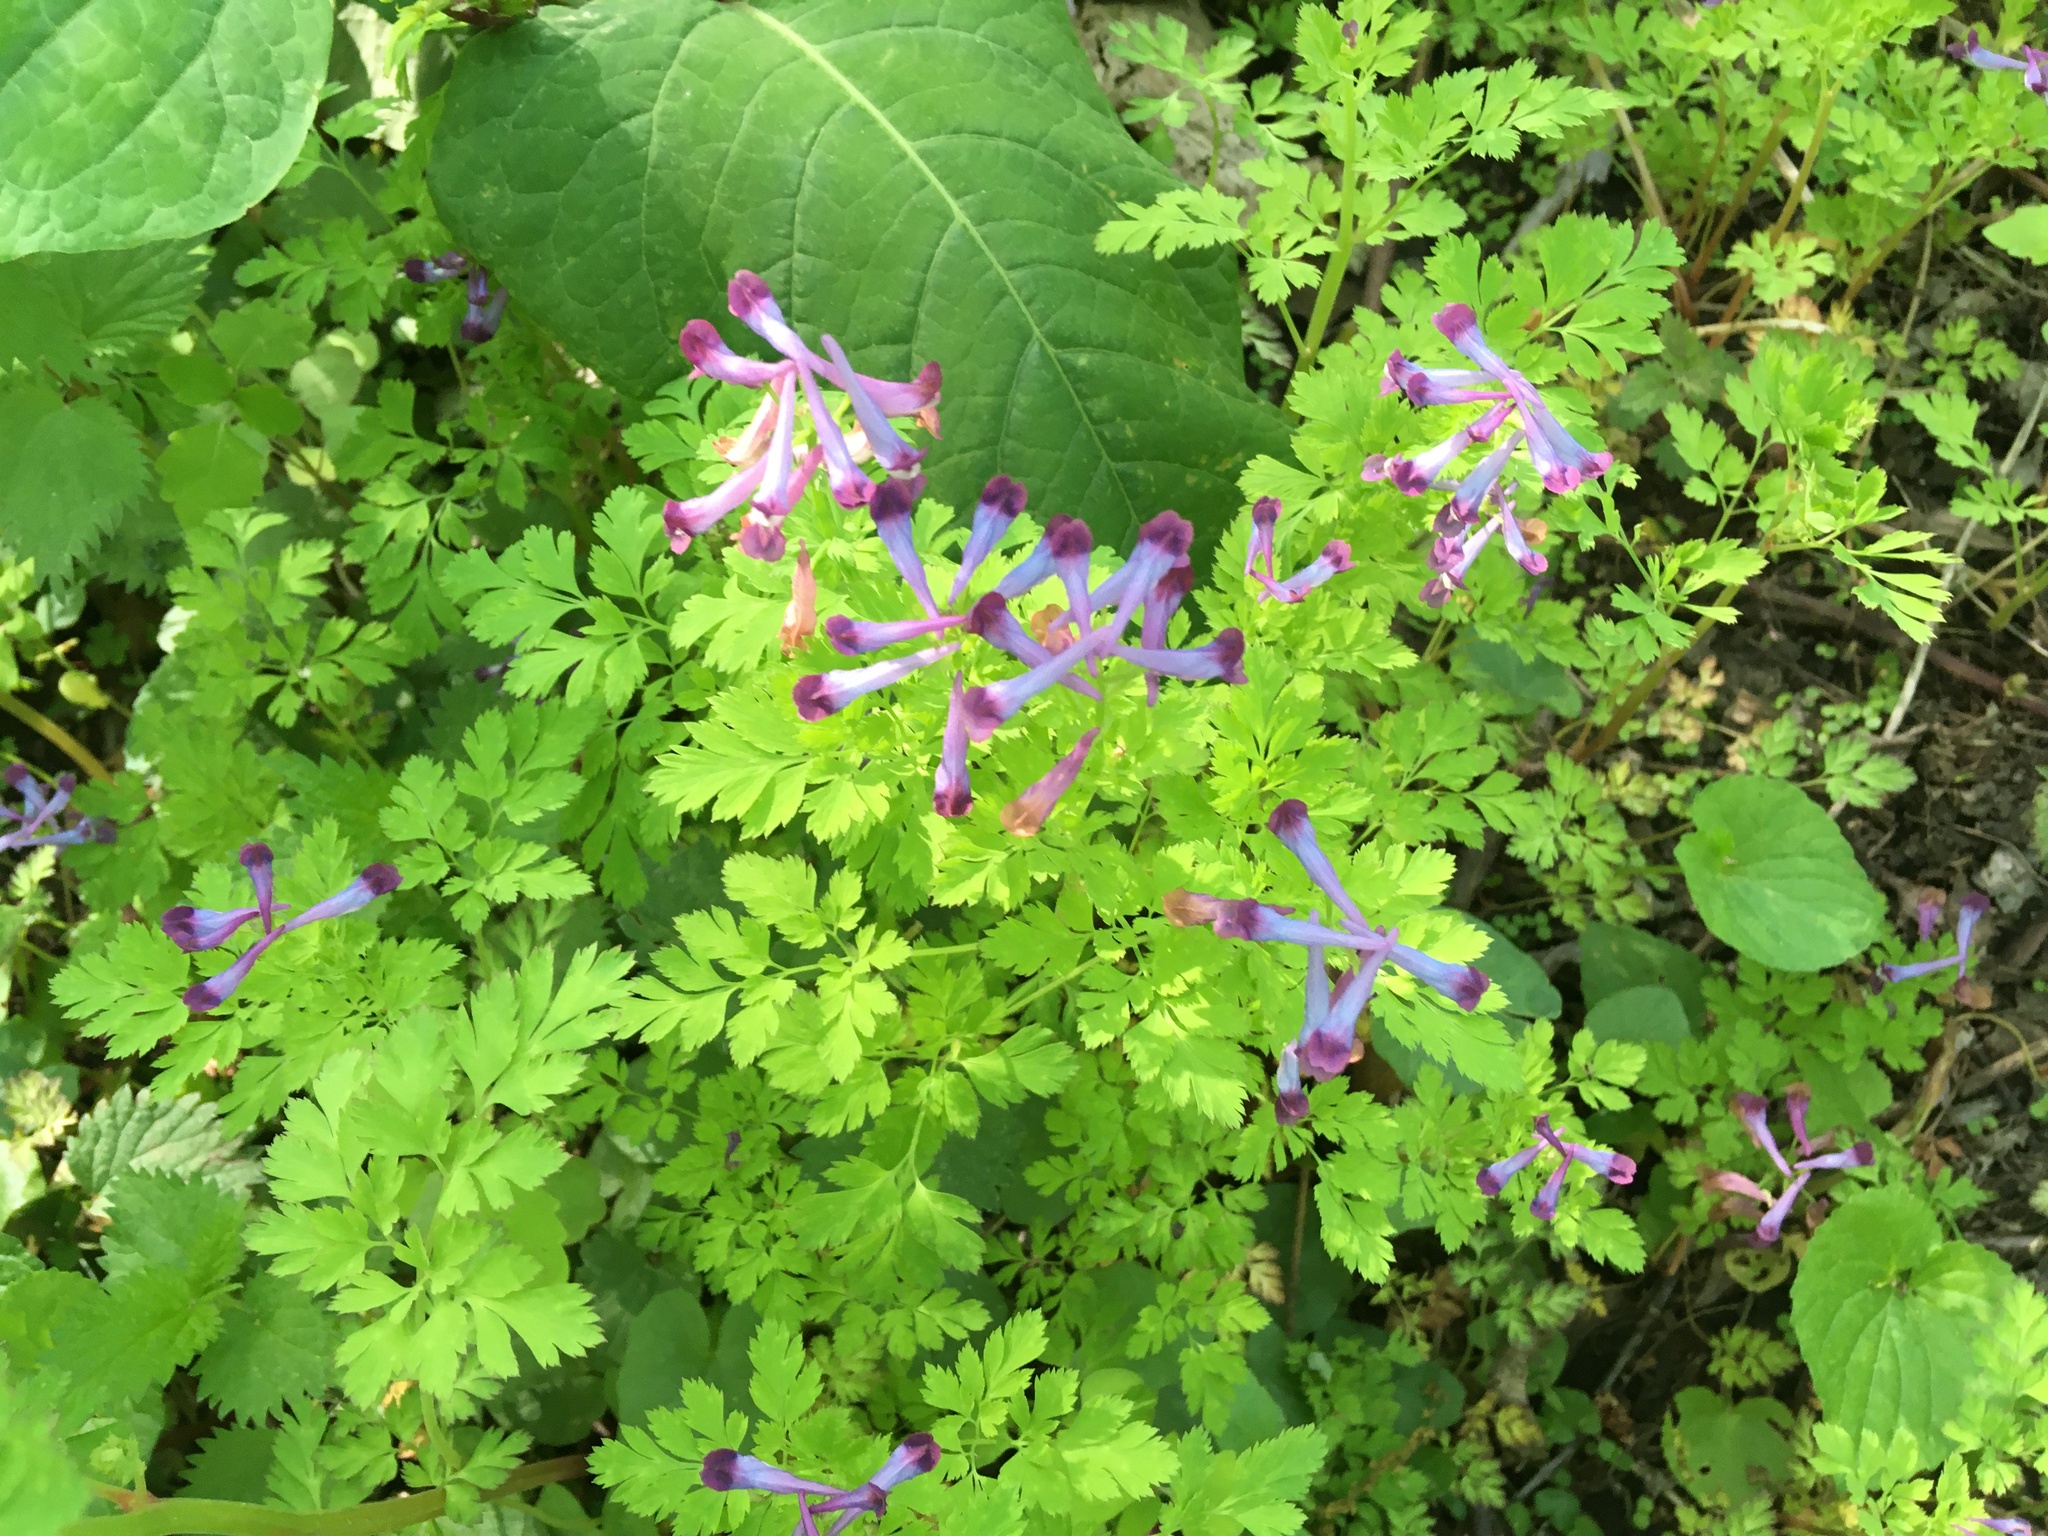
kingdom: Plantae
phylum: Tracheophyta
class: Magnoliopsida
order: Ranunculales
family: Papaveraceae
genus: Corydalis
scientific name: Corydalis incisa
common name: Incised fumewort
